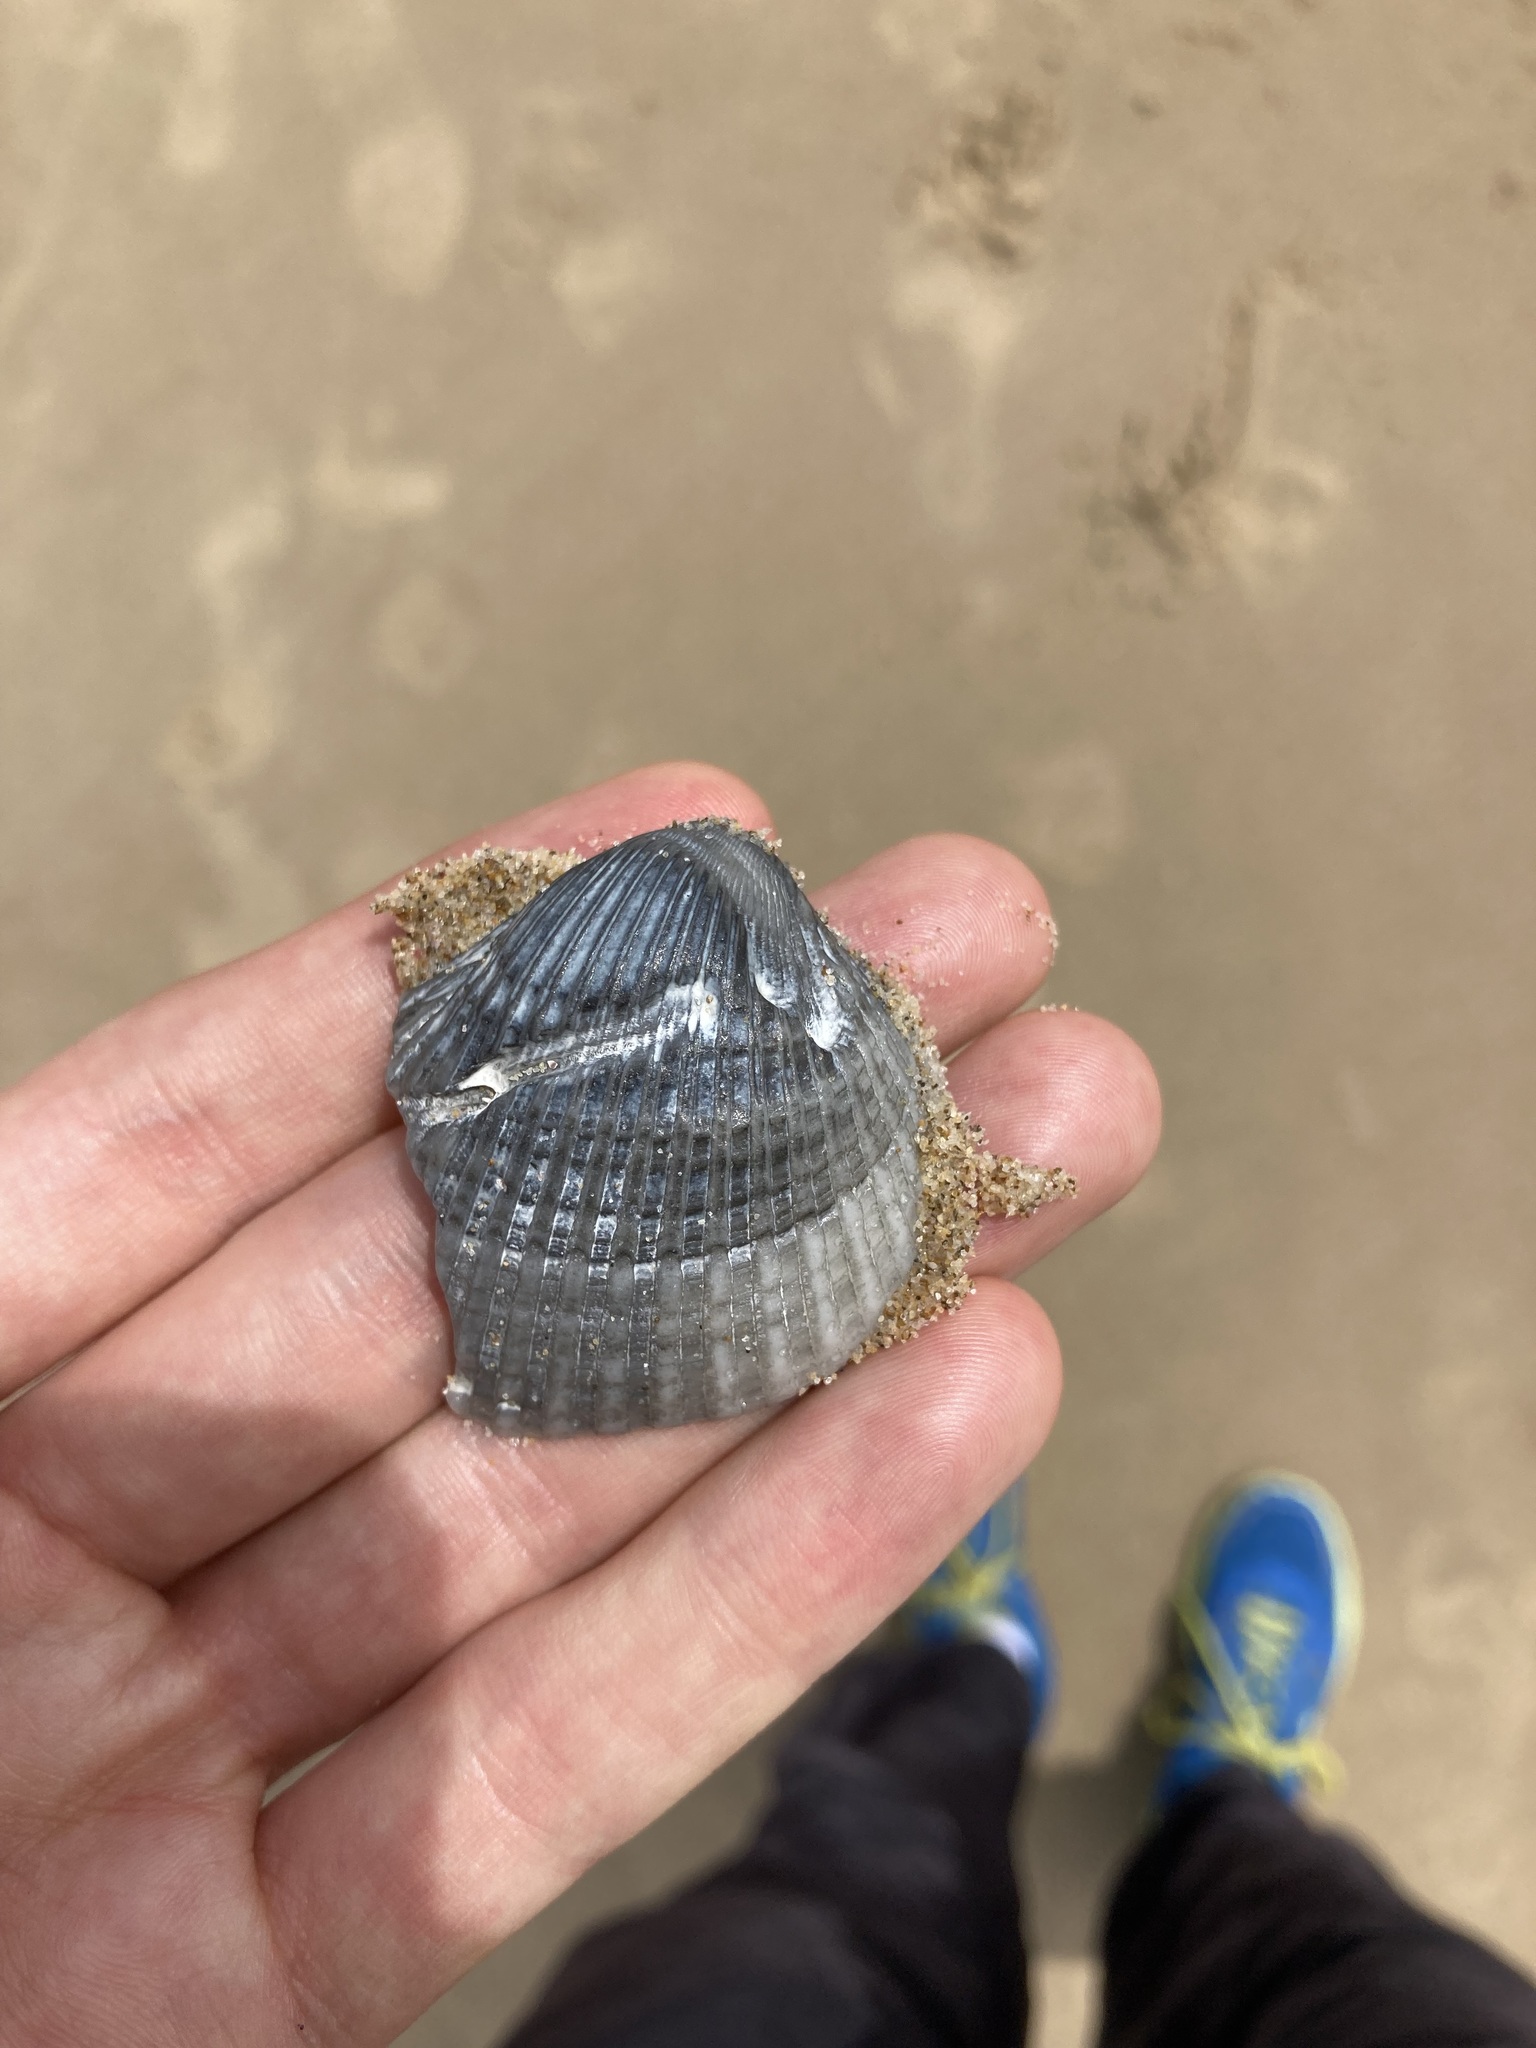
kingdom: Animalia
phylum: Mollusca
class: Bivalvia
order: Arcida
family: Arcidae
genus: Anadara
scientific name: Anadara trapezia
